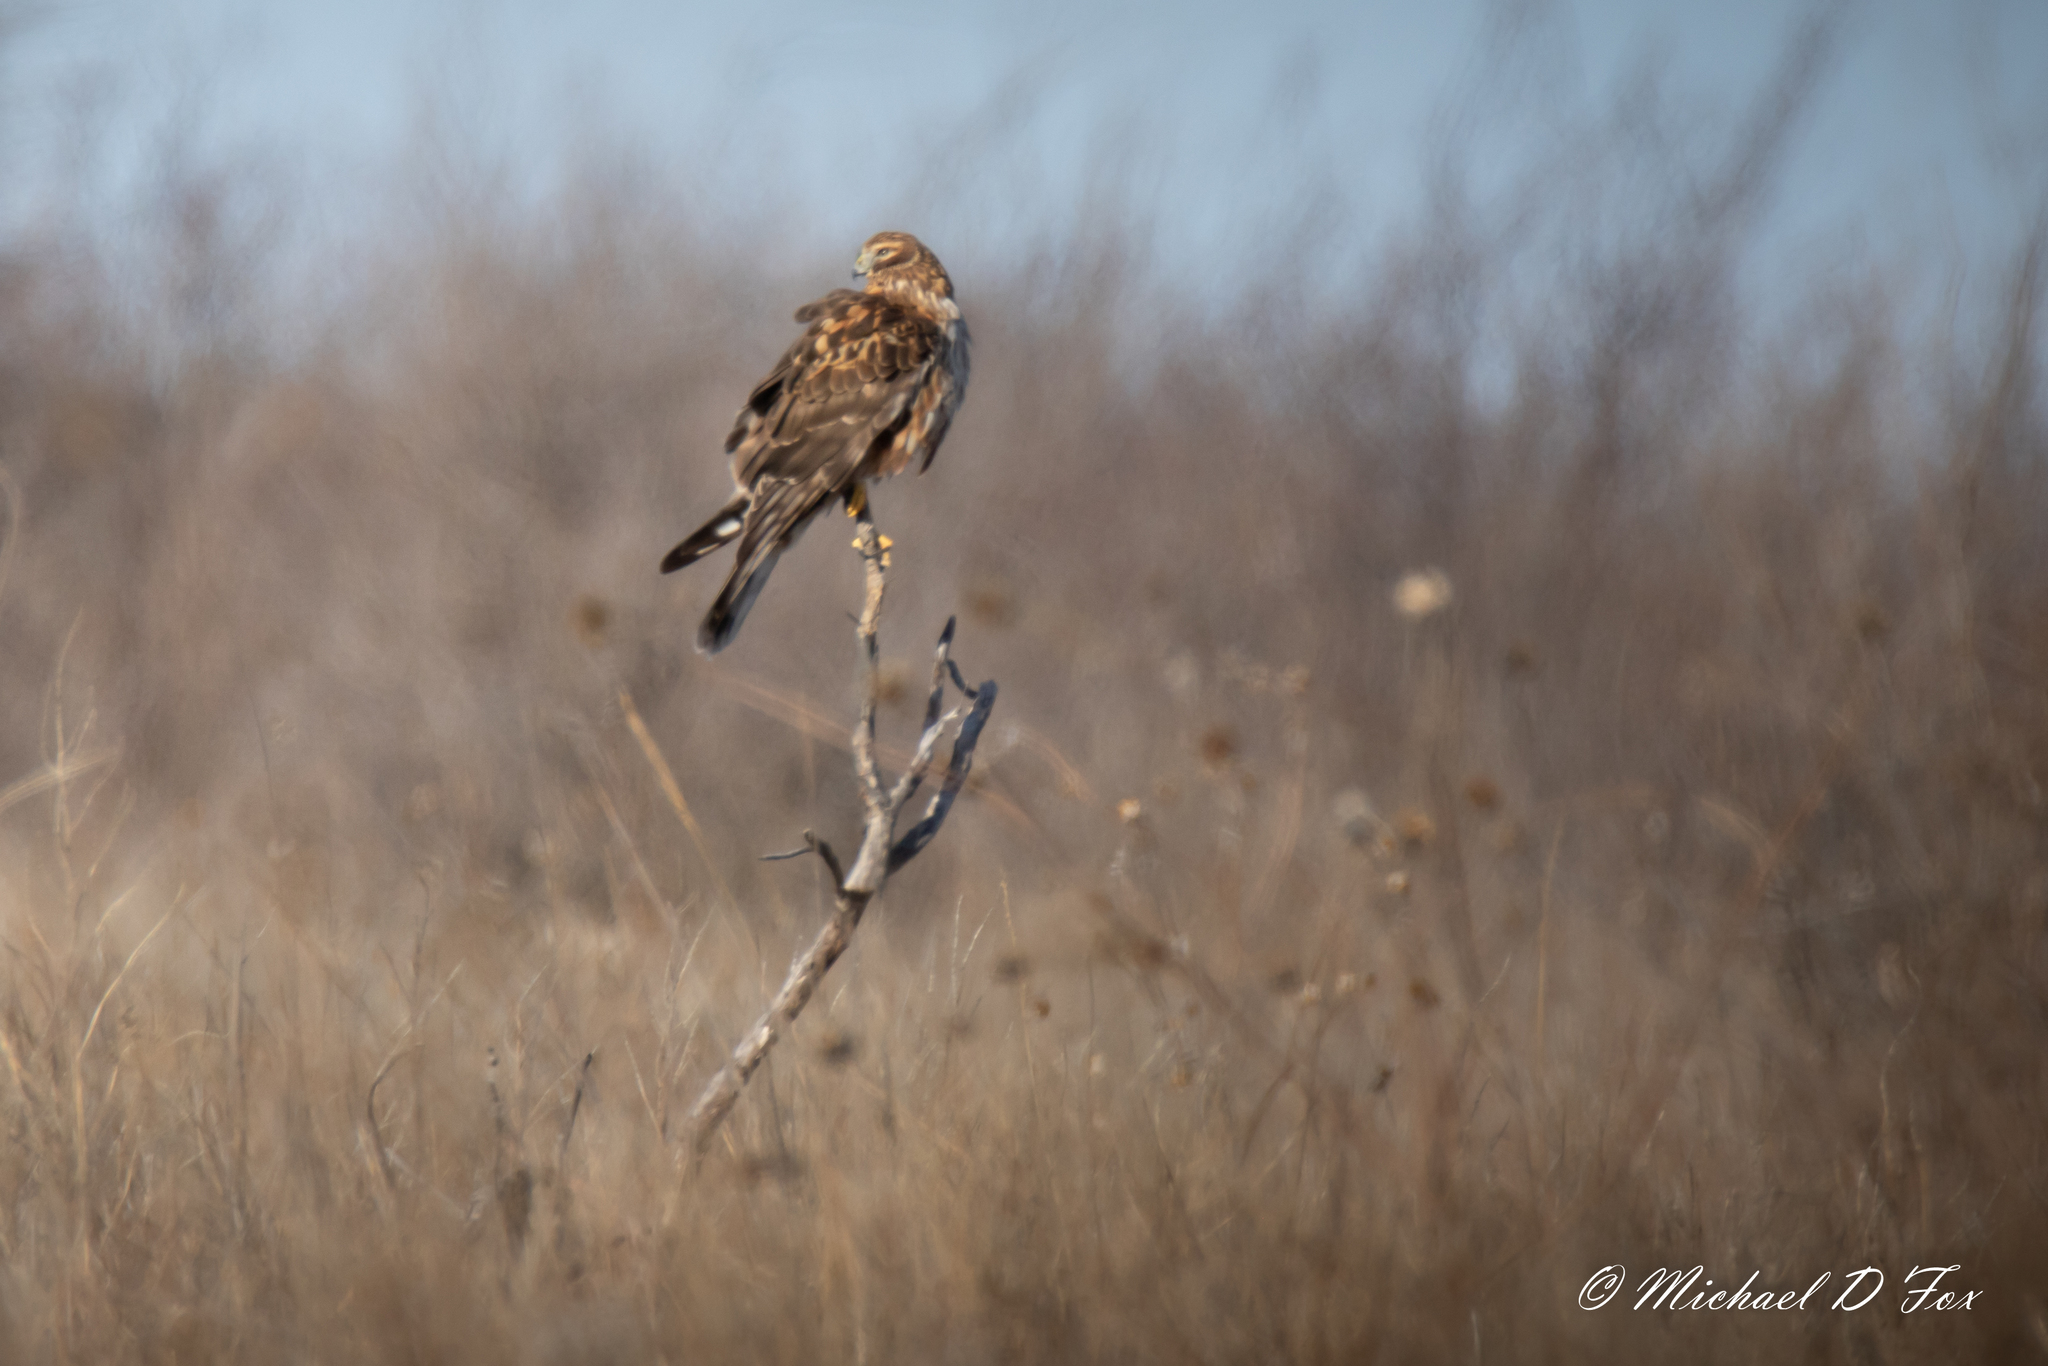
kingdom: Animalia
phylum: Chordata
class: Aves
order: Accipitriformes
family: Accipitridae
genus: Circus
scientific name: Circus cyaneus
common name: Hen harrier
